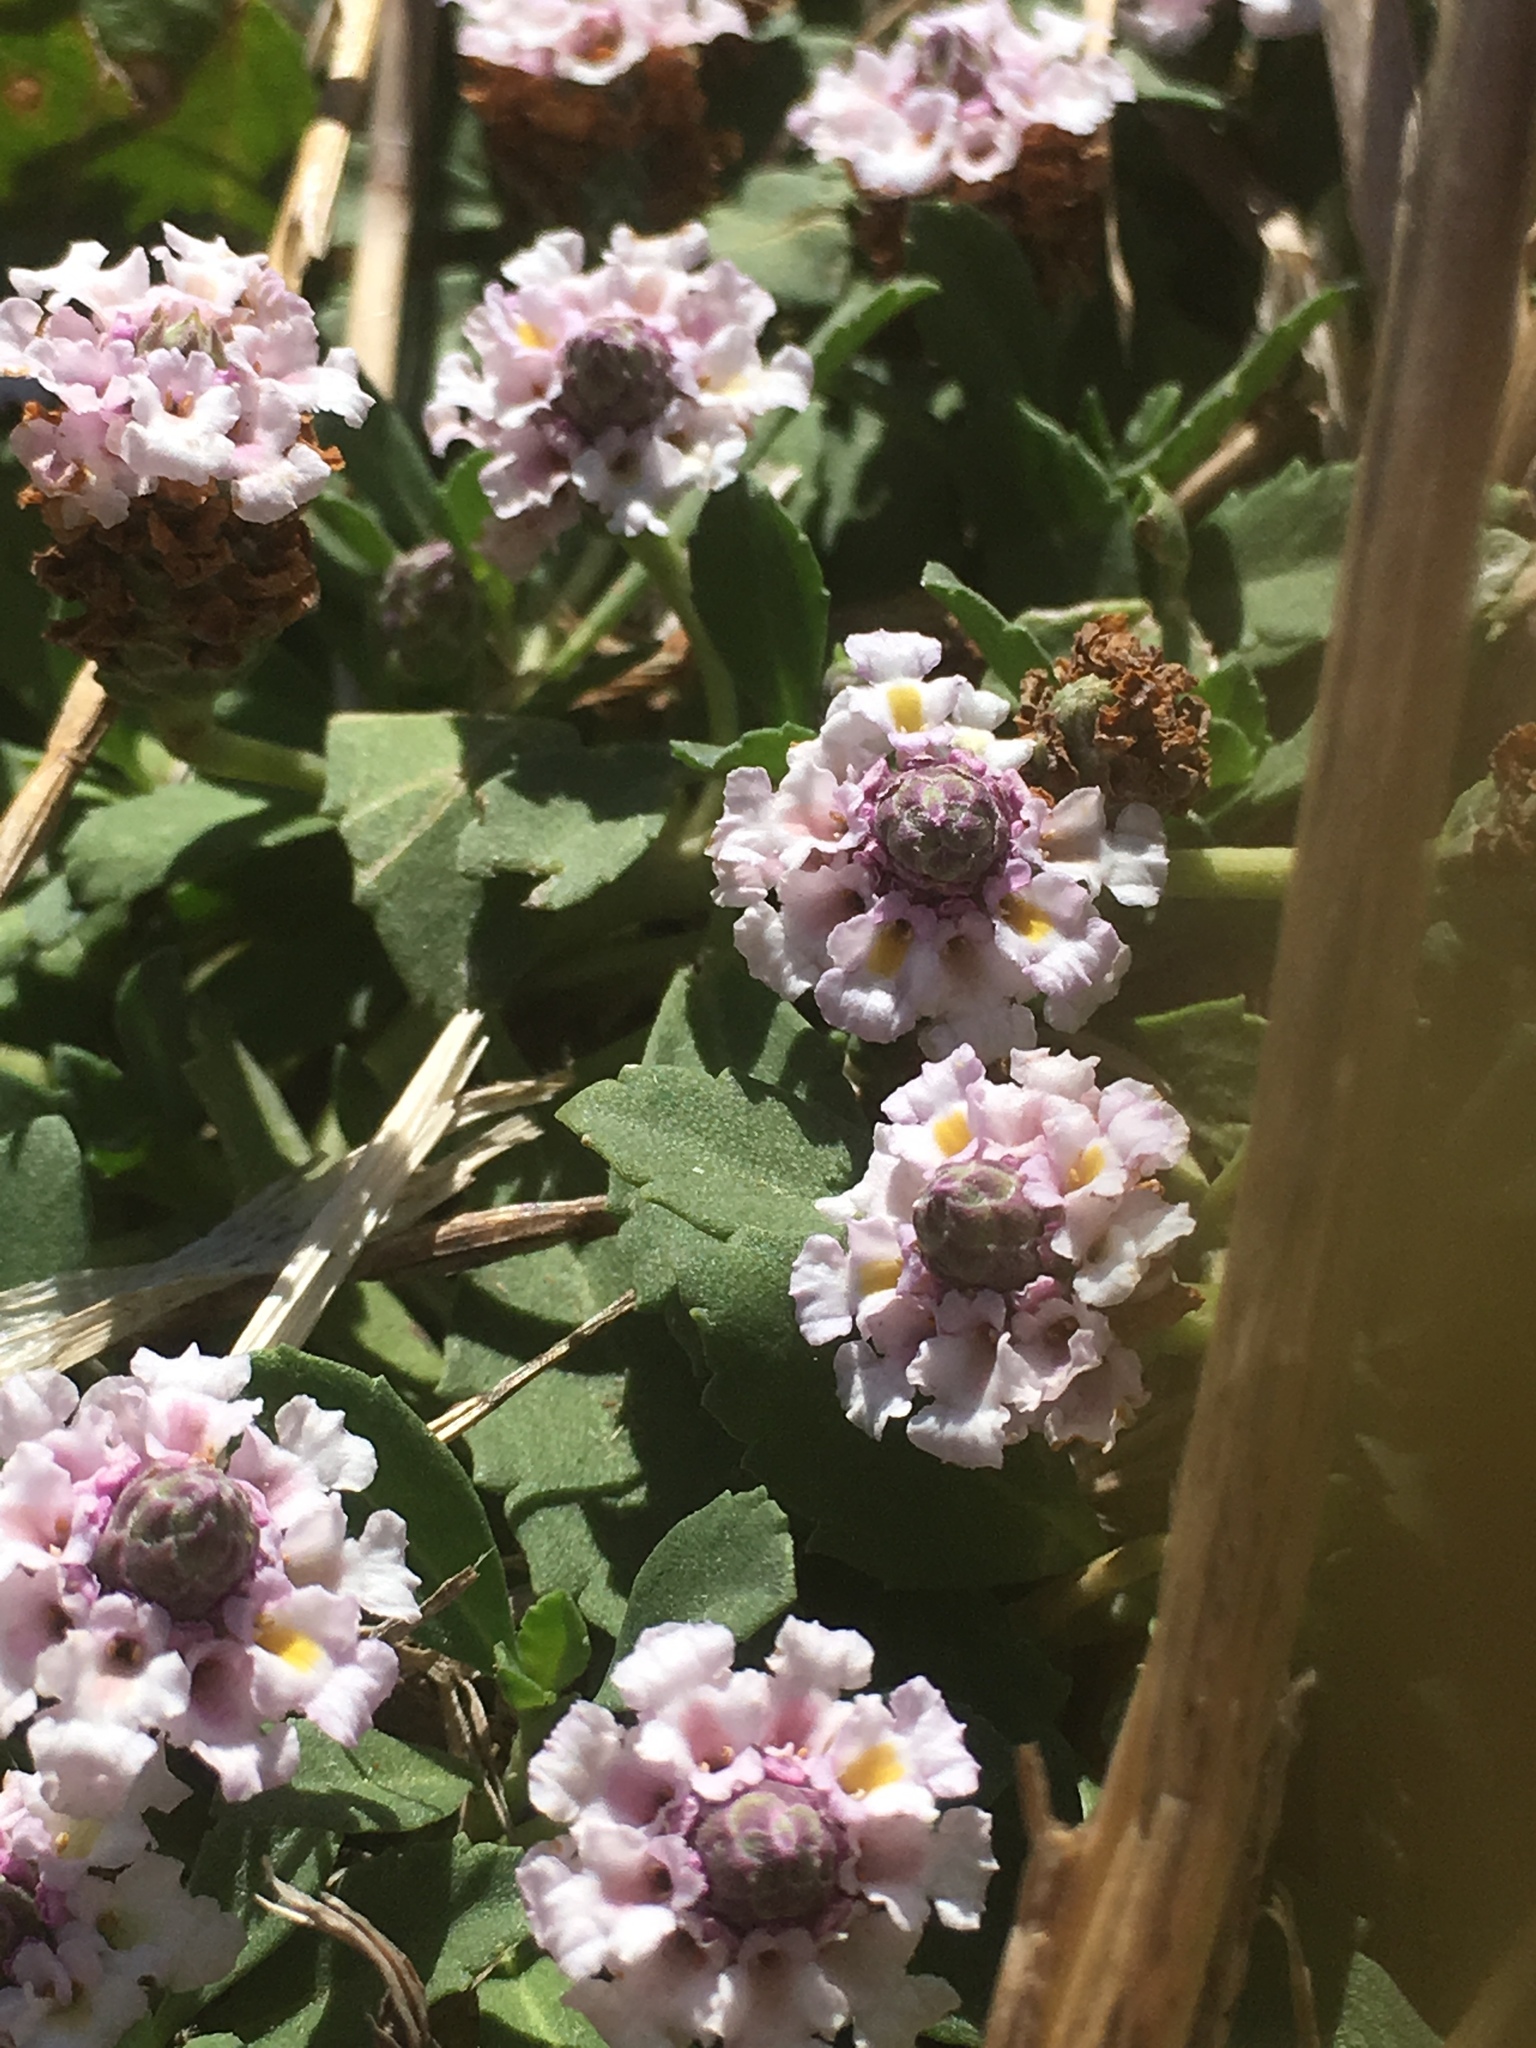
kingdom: Plantae
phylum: Tracheophyta
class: Magnoliopsida
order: Lamiales
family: Verbenaceae
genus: Phyla
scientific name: Phyla nodiflora
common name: Frogfruit
